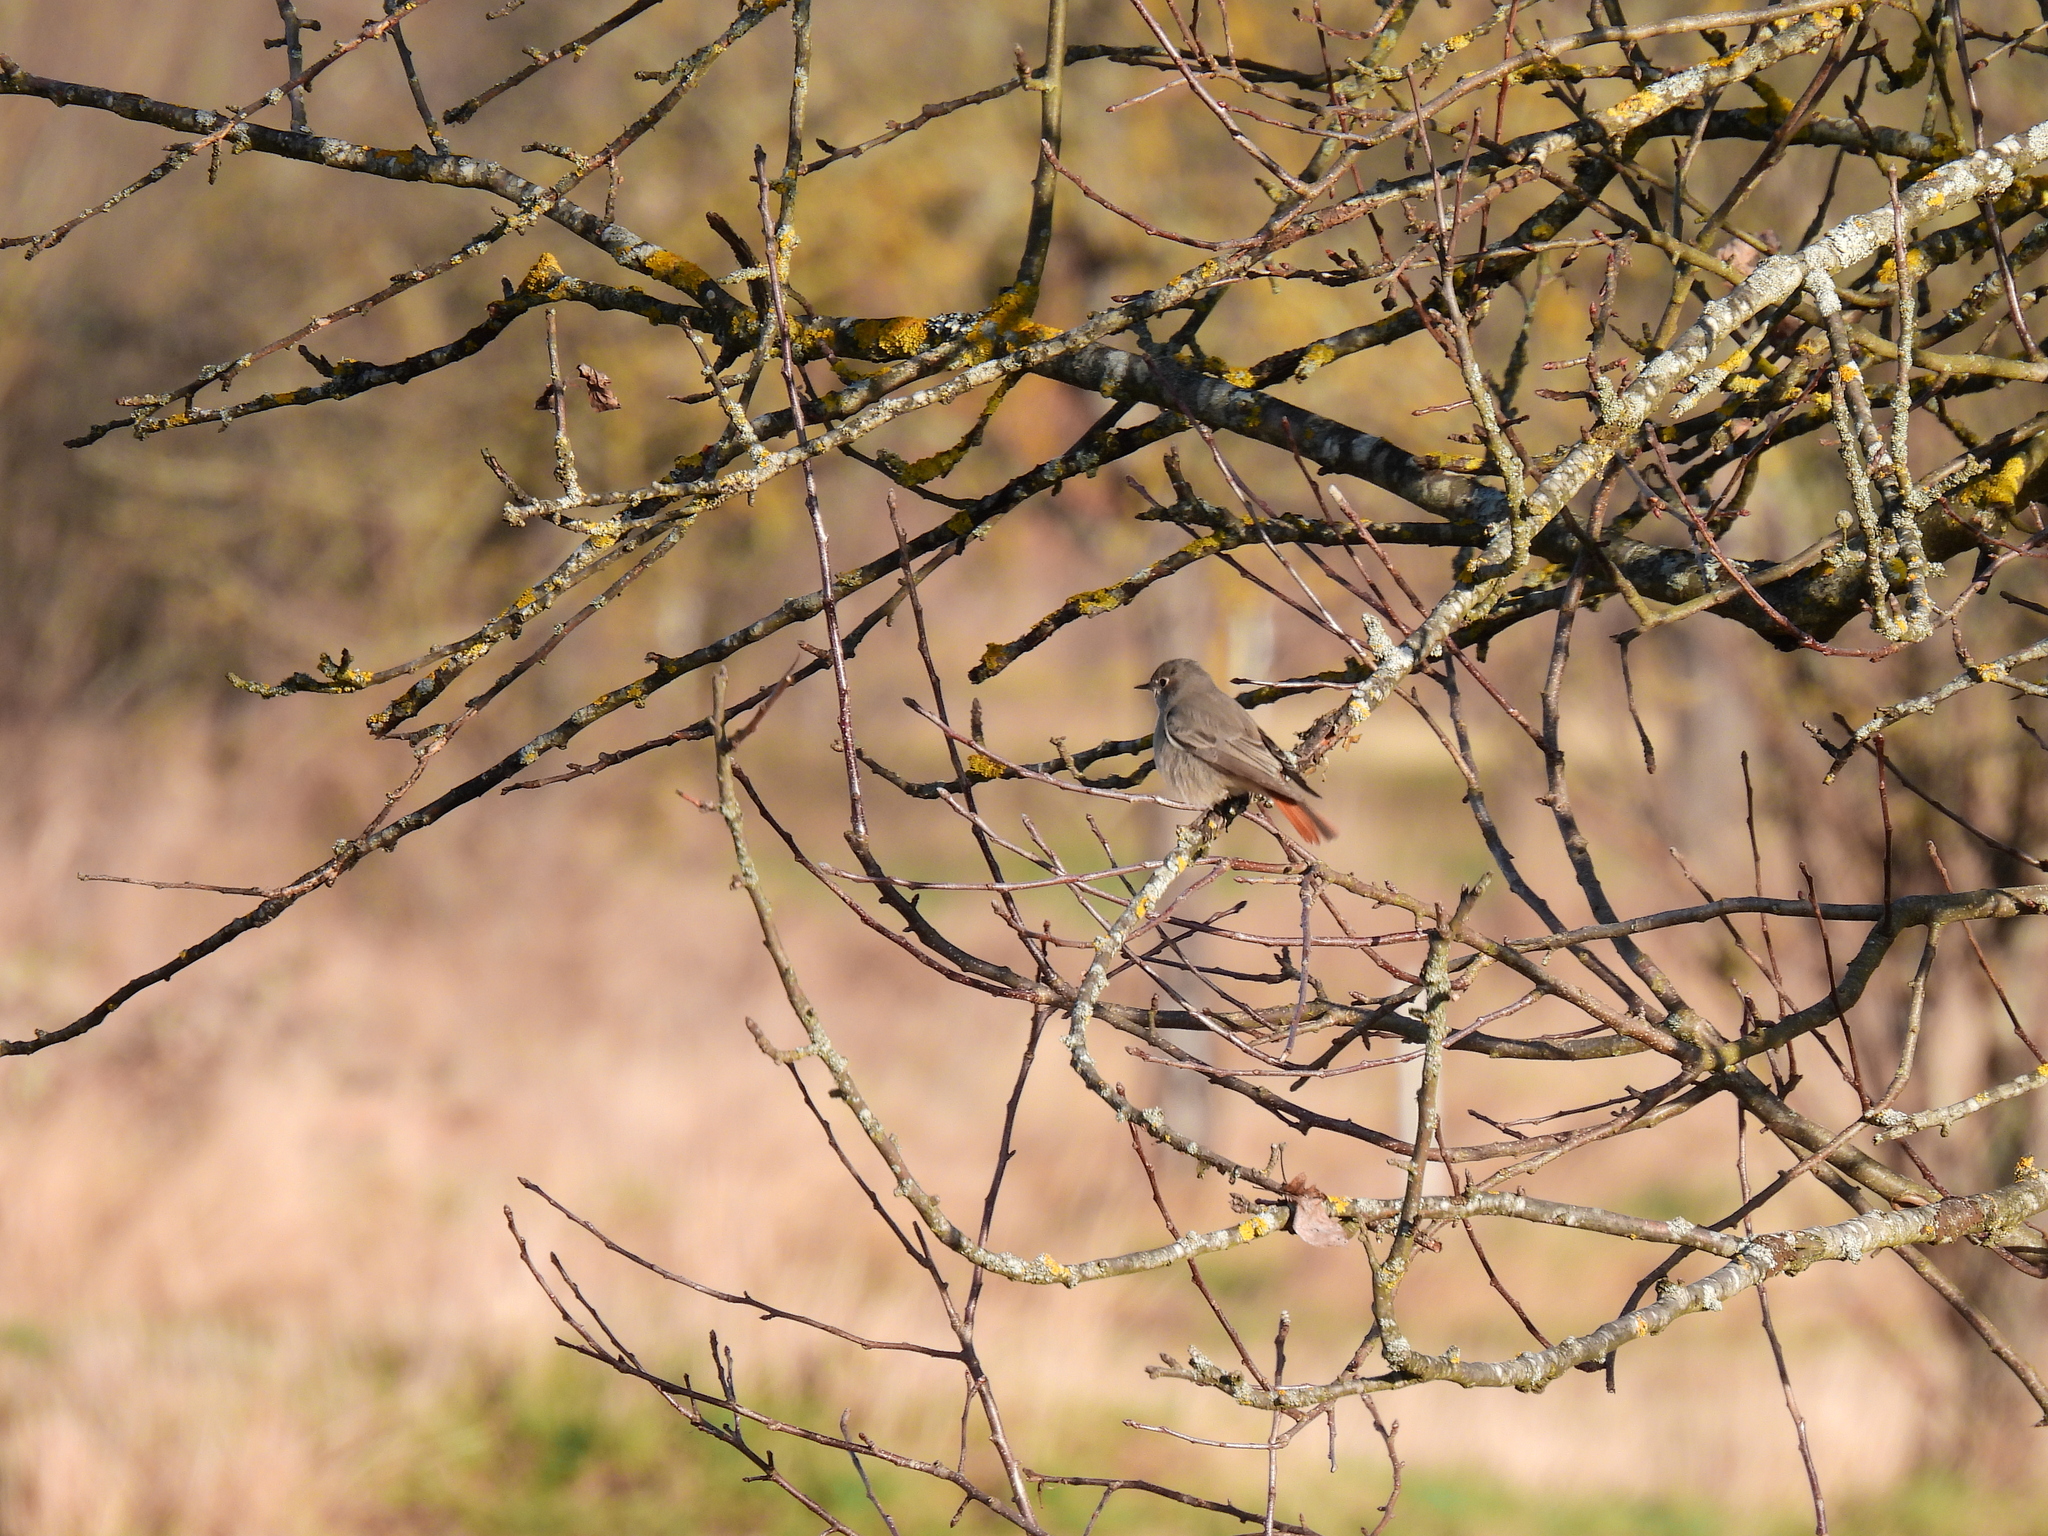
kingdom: Animalia
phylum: Chordata
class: Aves
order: Passeriformes
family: Muscicapidae
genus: Phoenicurus
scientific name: Phoenicurus ochruros
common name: Black redstart
